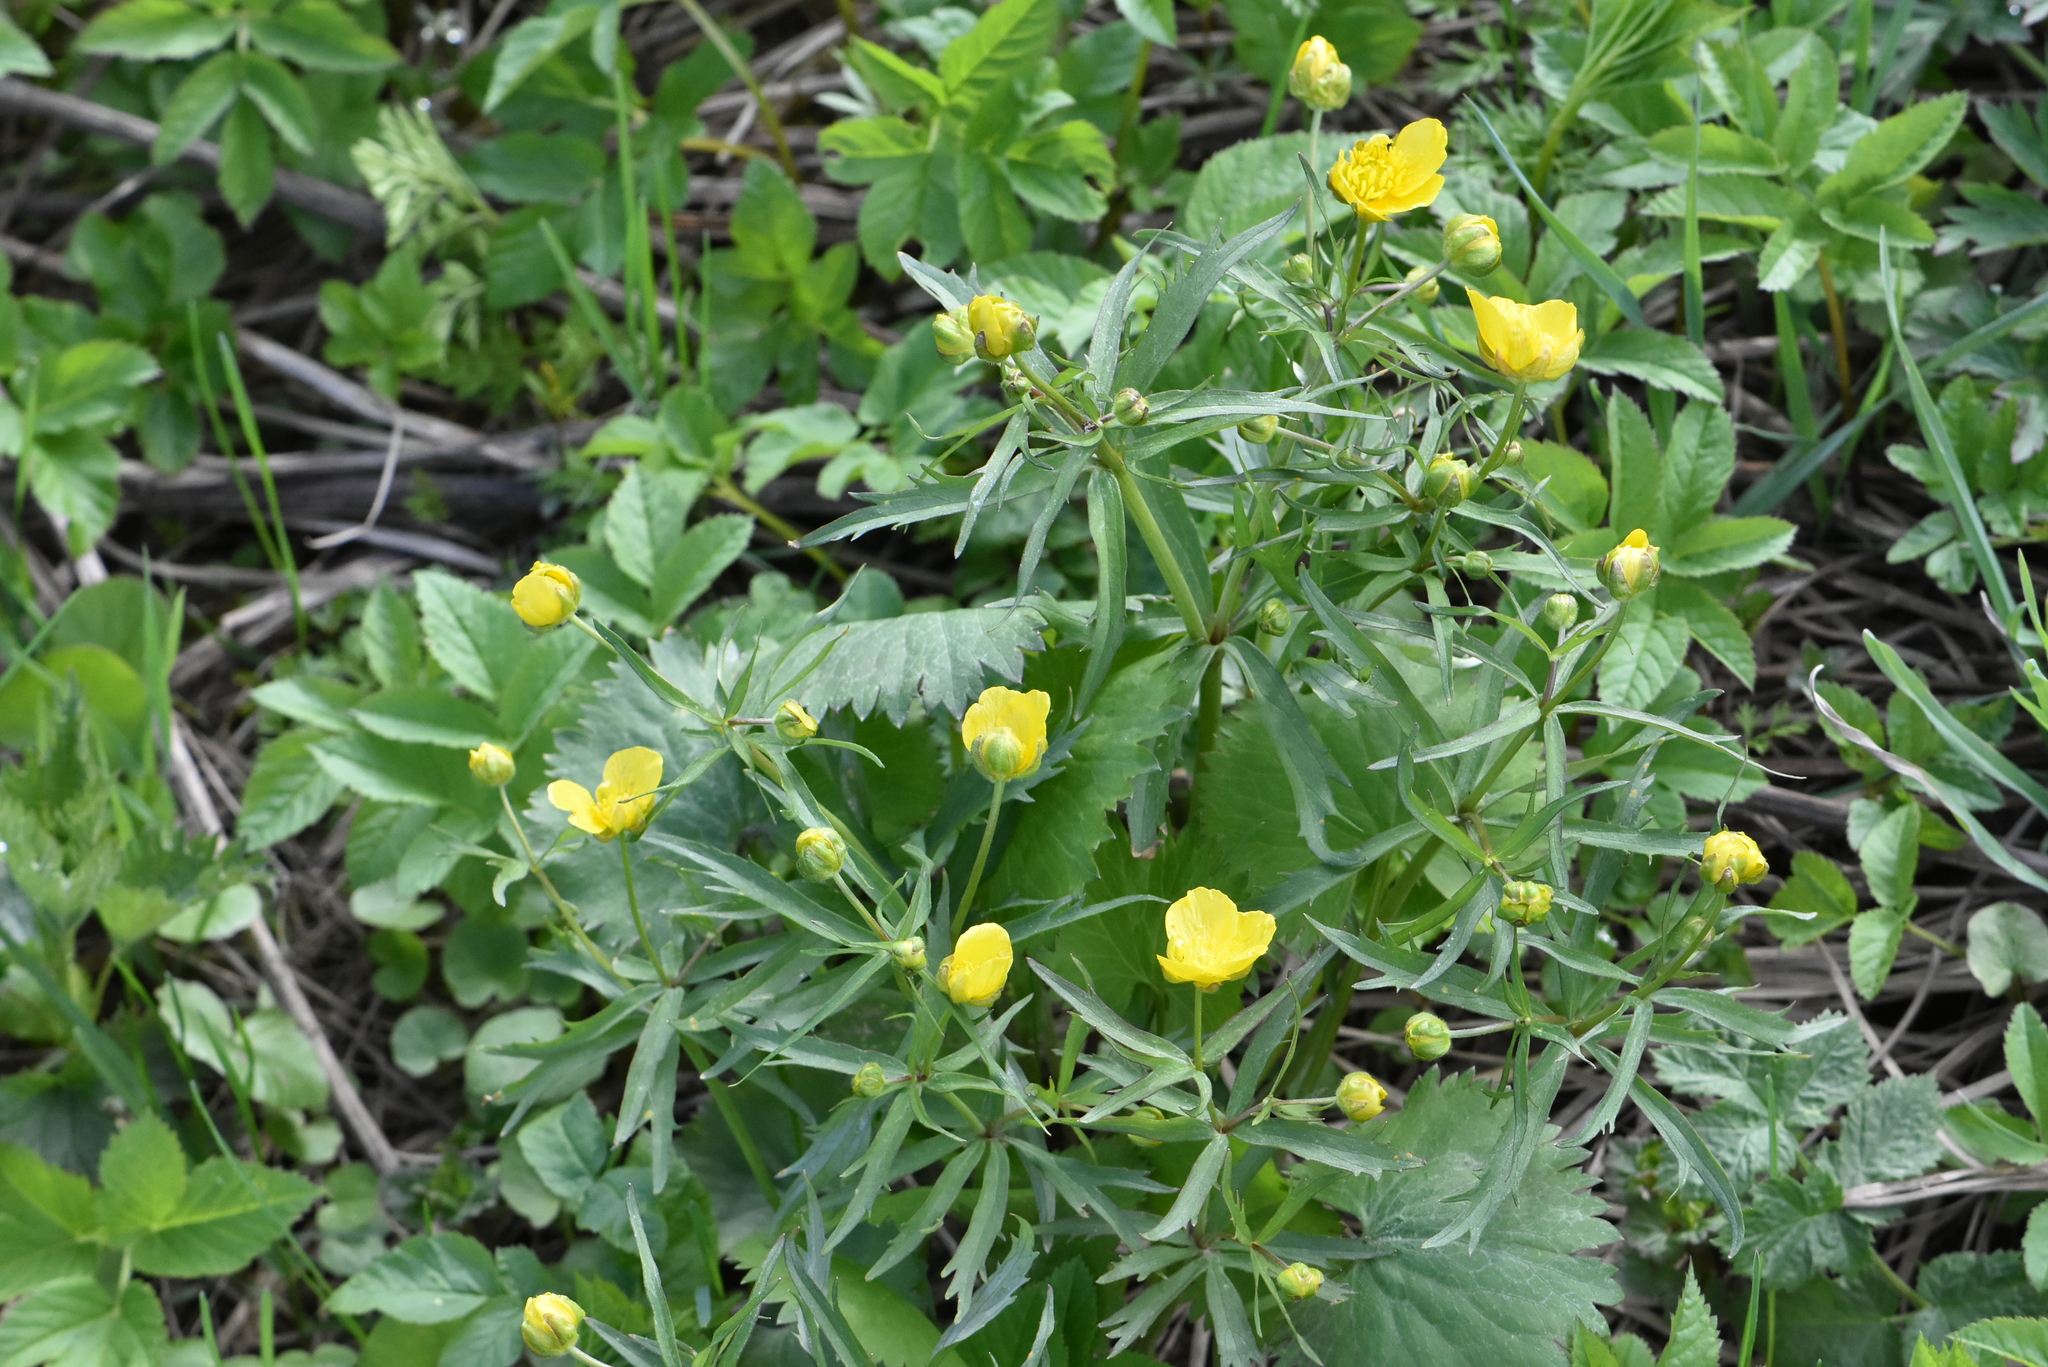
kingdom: Plantae
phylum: Tracheophyta
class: Magnoliopsida
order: Ranunculales
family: Ranunculaceae
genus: Ranunculus
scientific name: Ranunculus cassubicus
